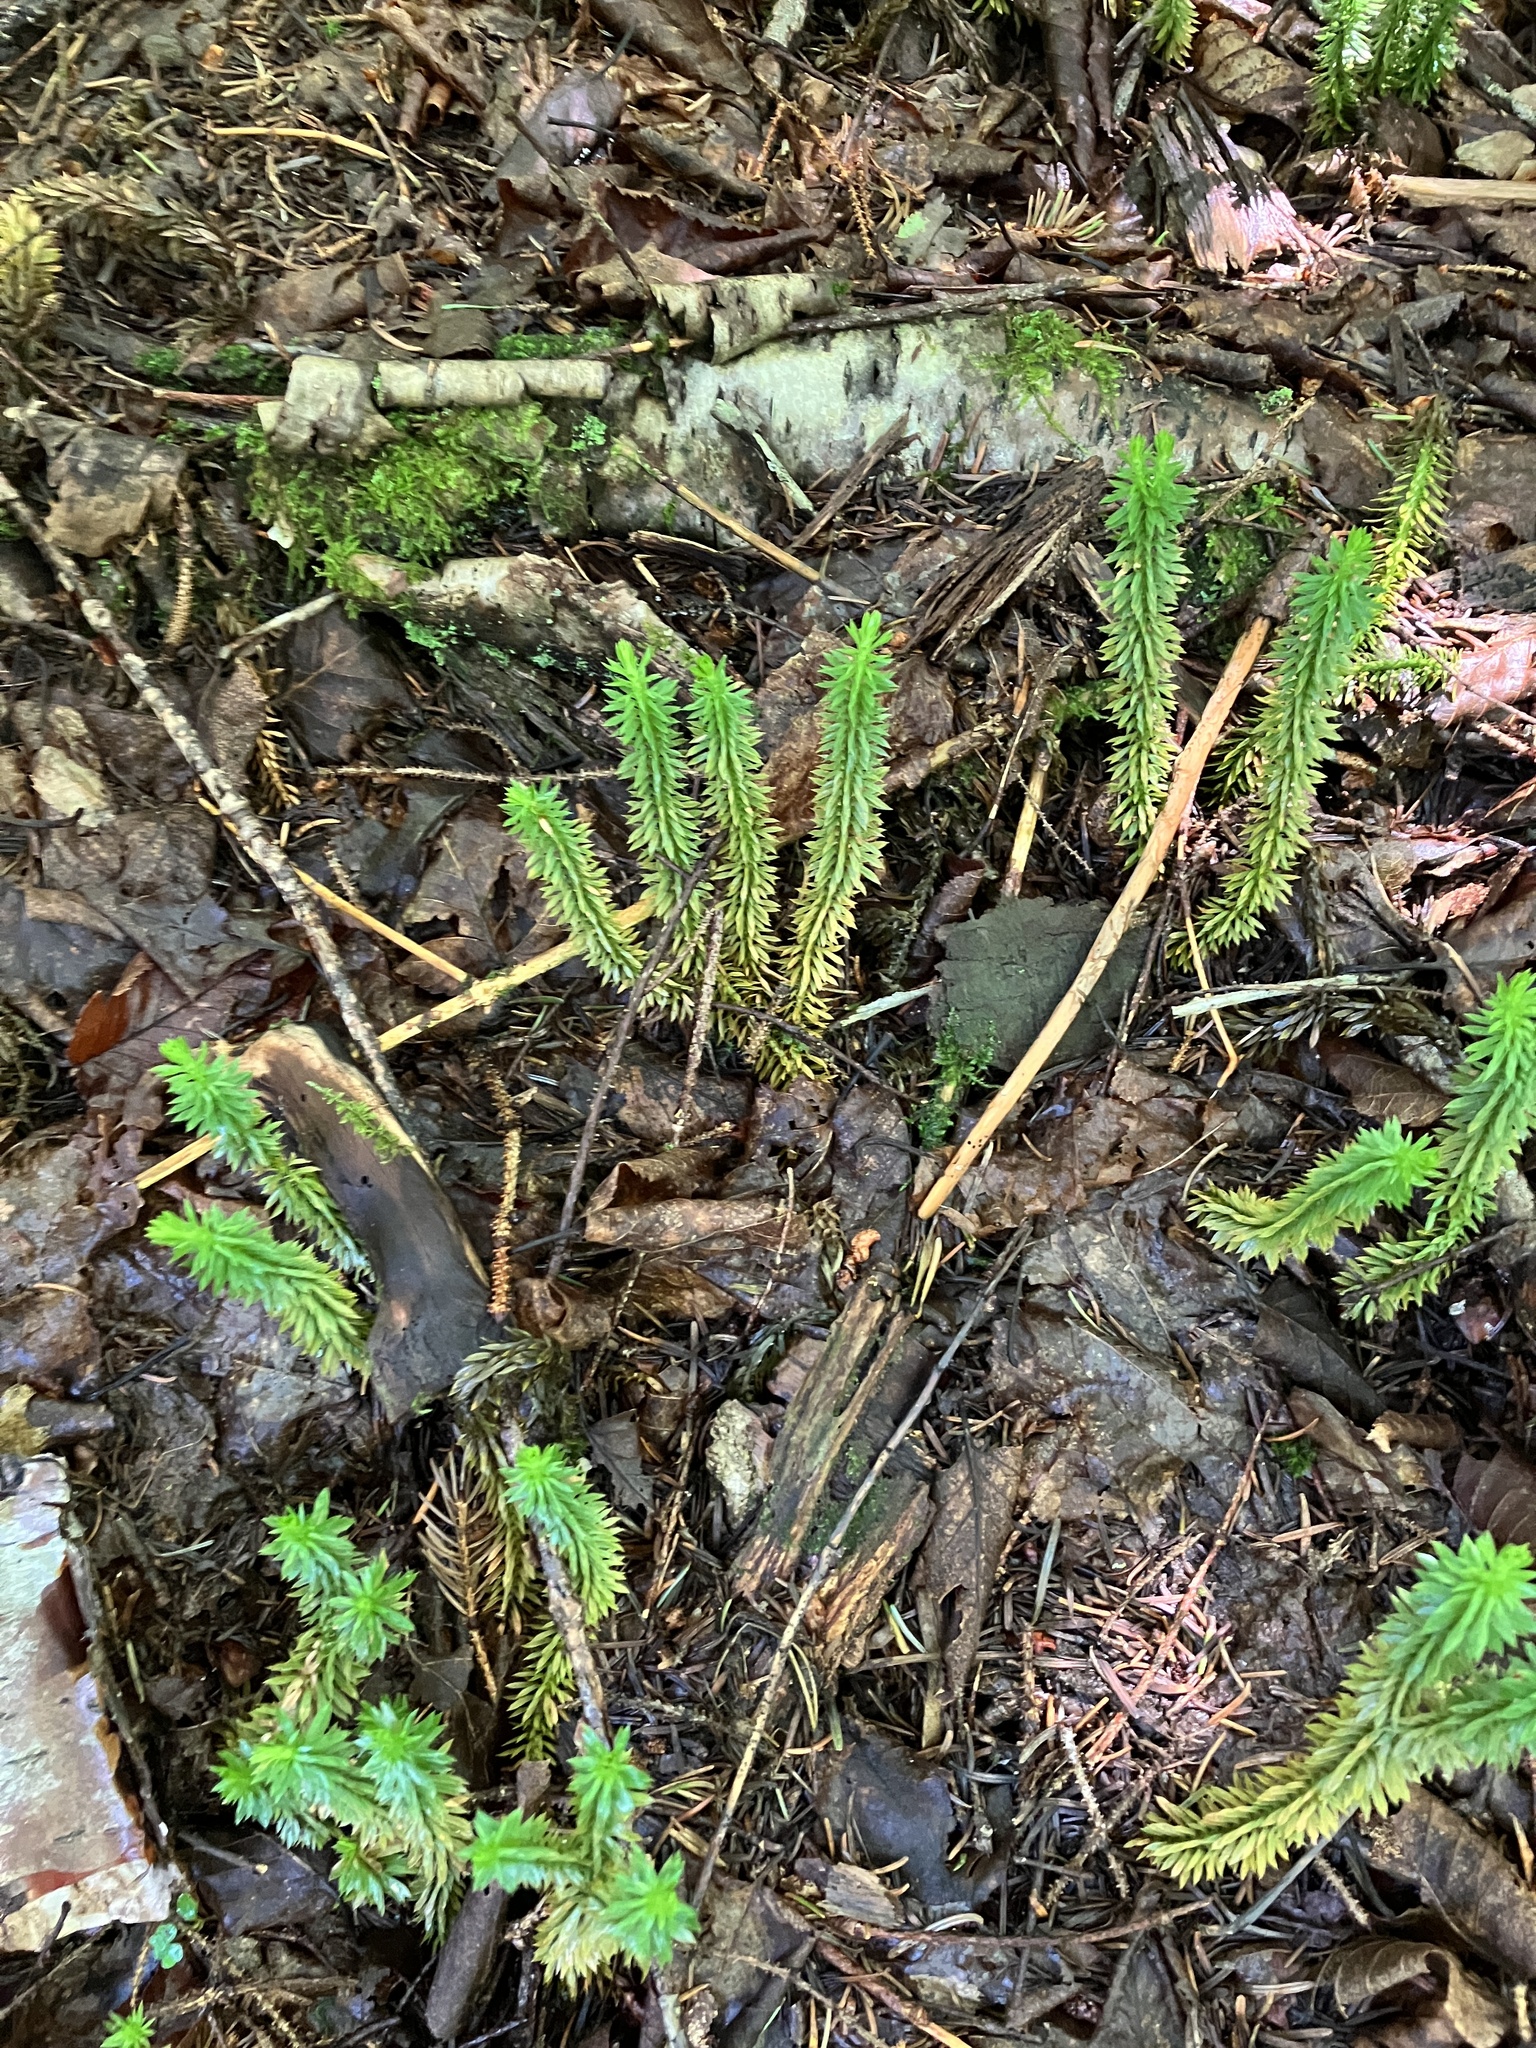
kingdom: Plantae
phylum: Tracheophyta
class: Lycopodiopsida
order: Lycopodiales
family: Lycopodiaceae
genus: Huperzia
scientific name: Huperzia lucidula
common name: Shining clubmoss
